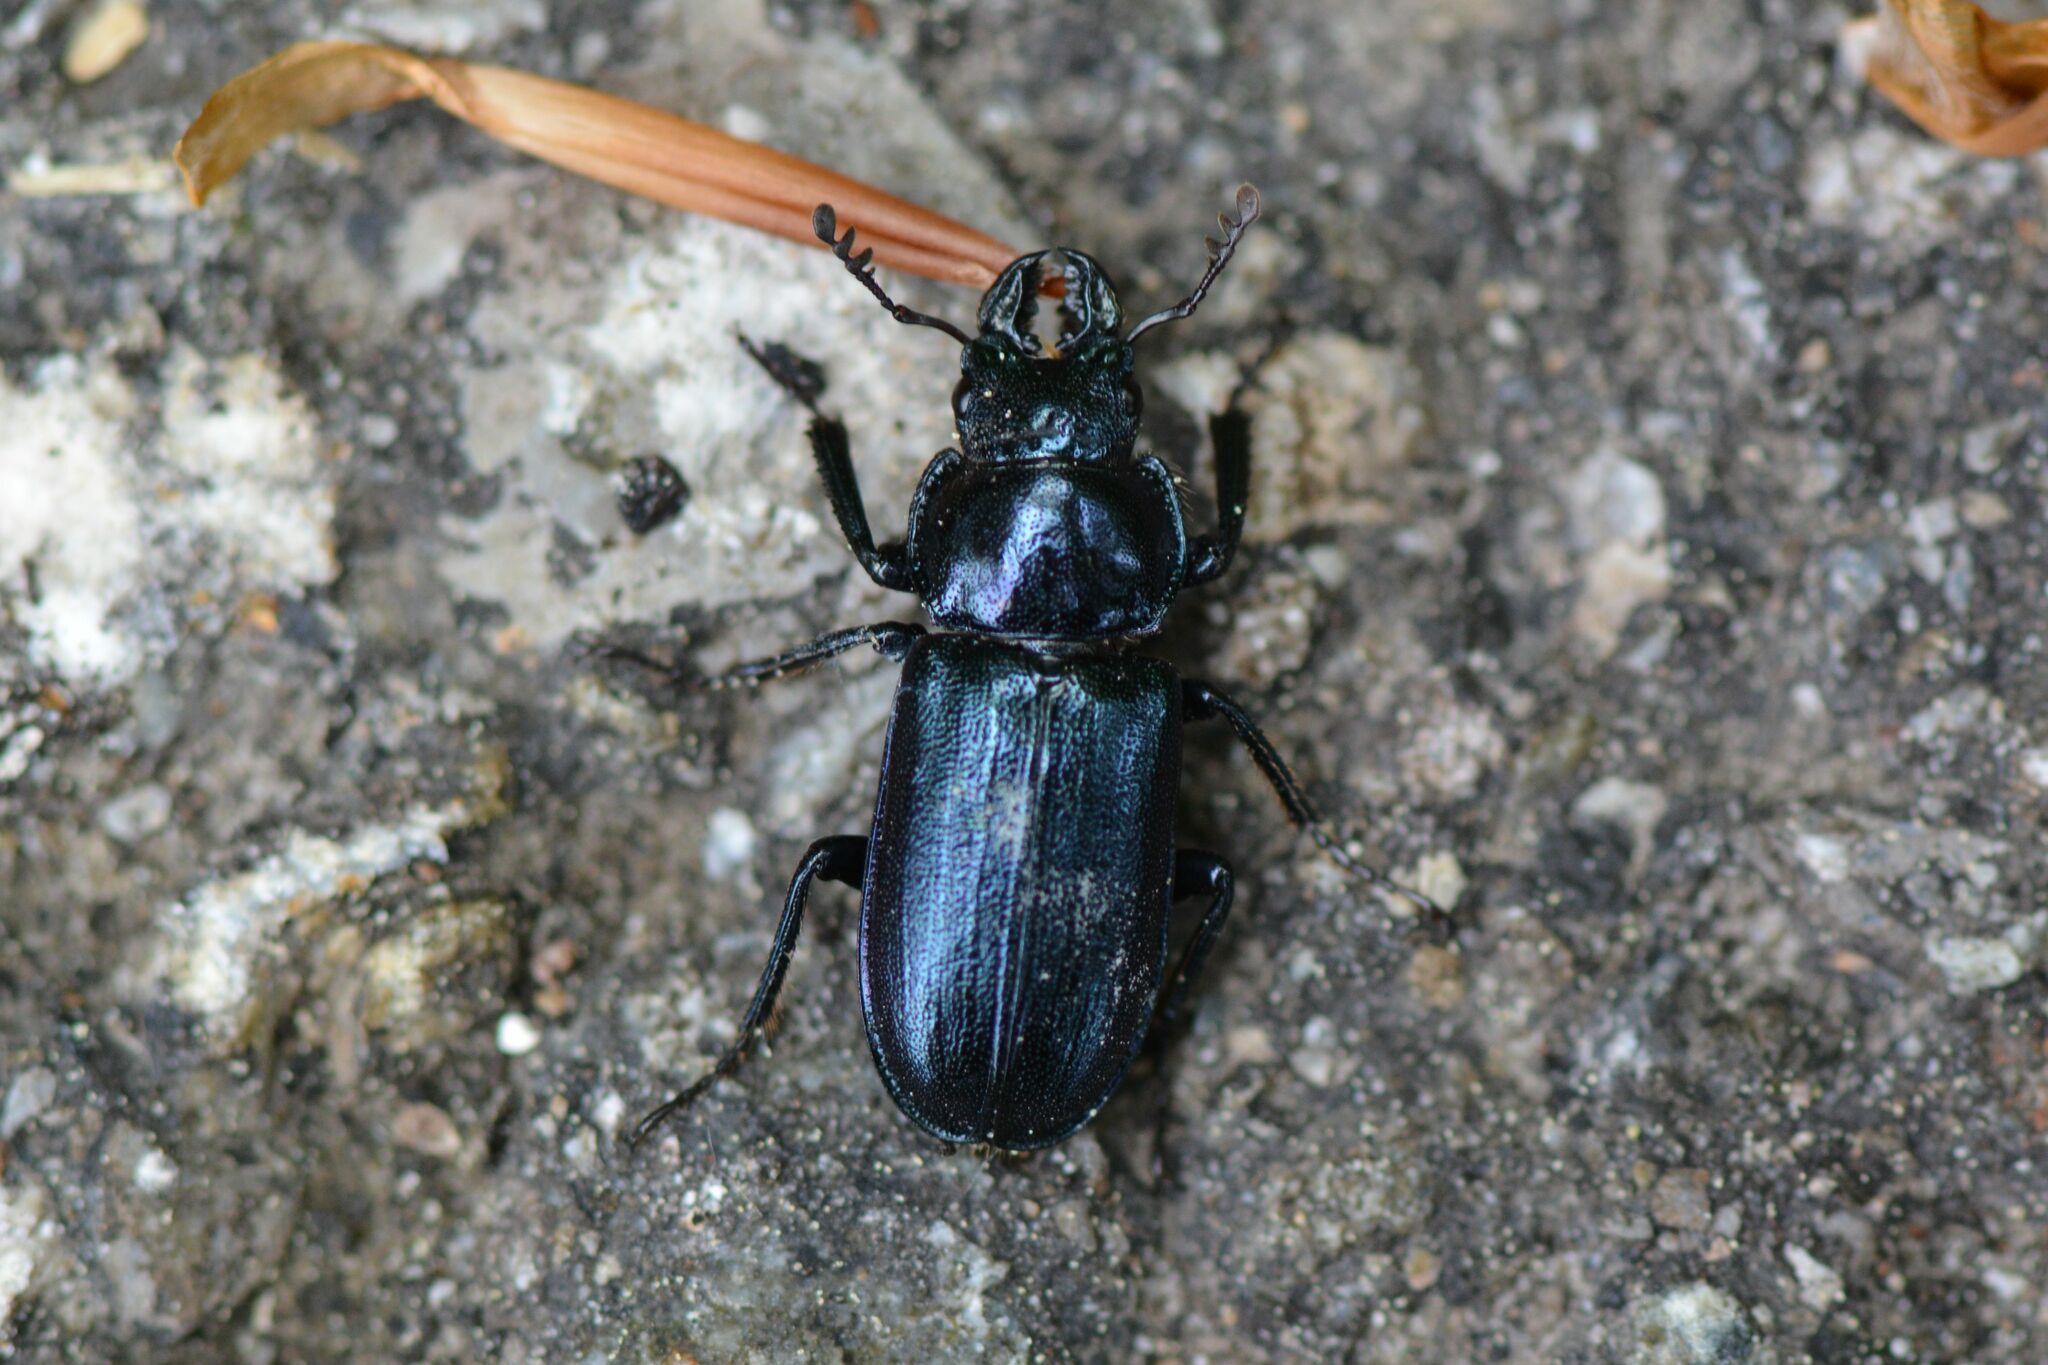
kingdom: Animalia
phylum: Arthropoda
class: Insecta
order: Coleoptera
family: Lucanidae
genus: Platycerus
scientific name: Platycerus caraboides
